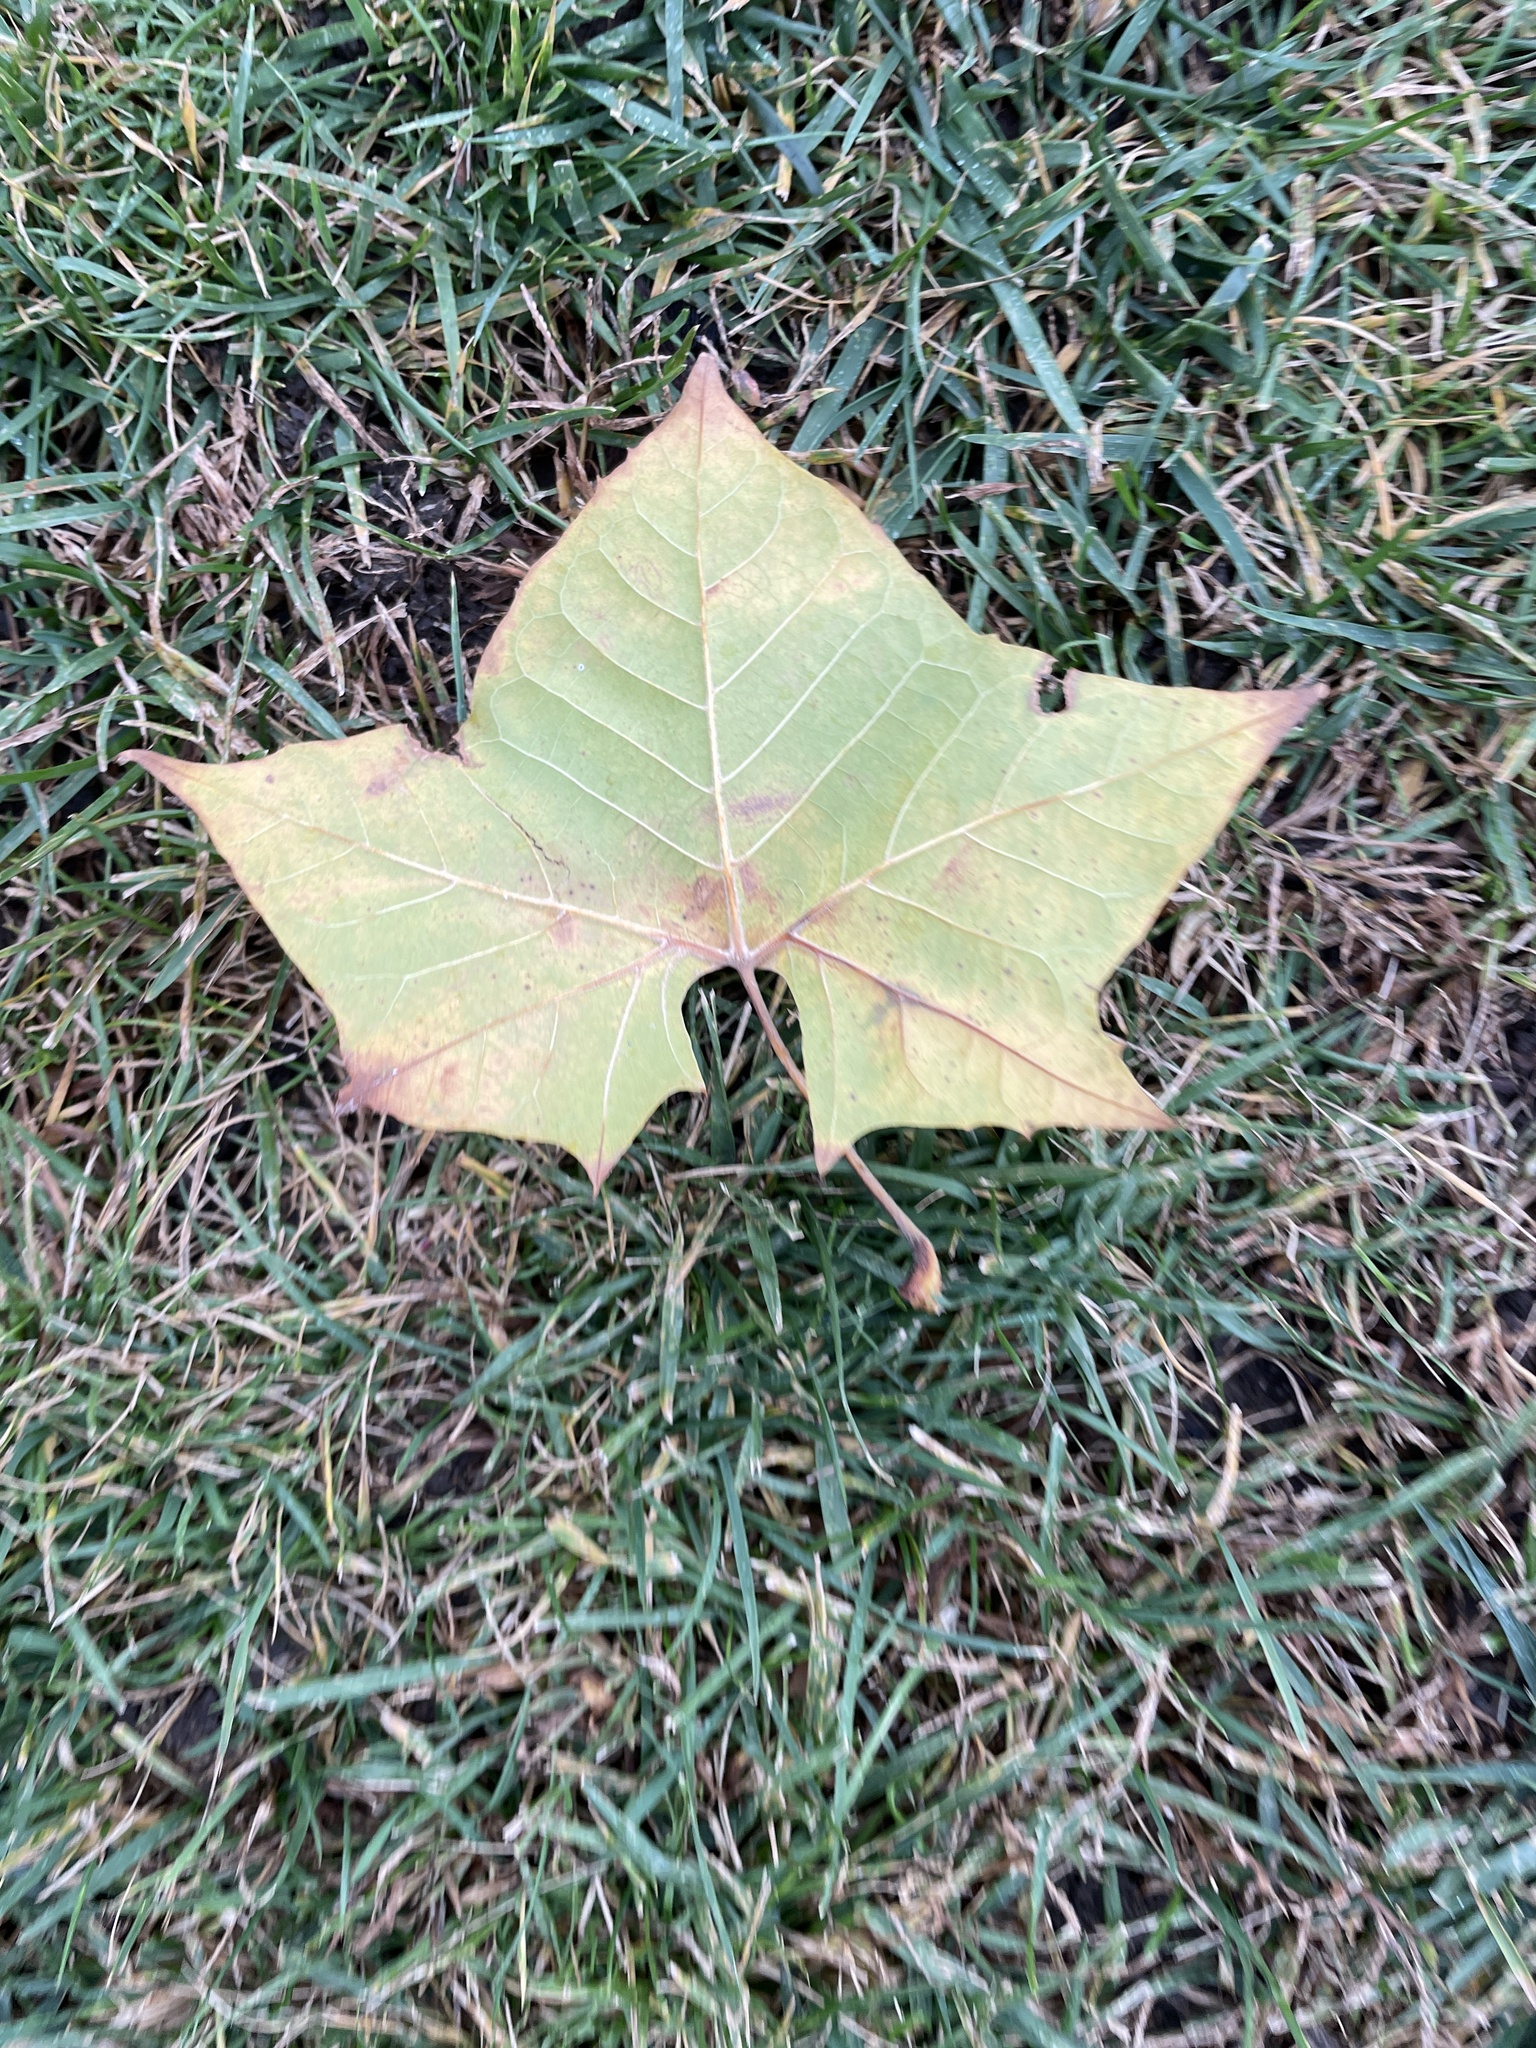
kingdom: Plantae
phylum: Tracheophyta
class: Magnoliopsida
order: Proteales
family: Platanaceae
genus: Platanus
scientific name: Platanus occidentalis
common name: American sycamore
